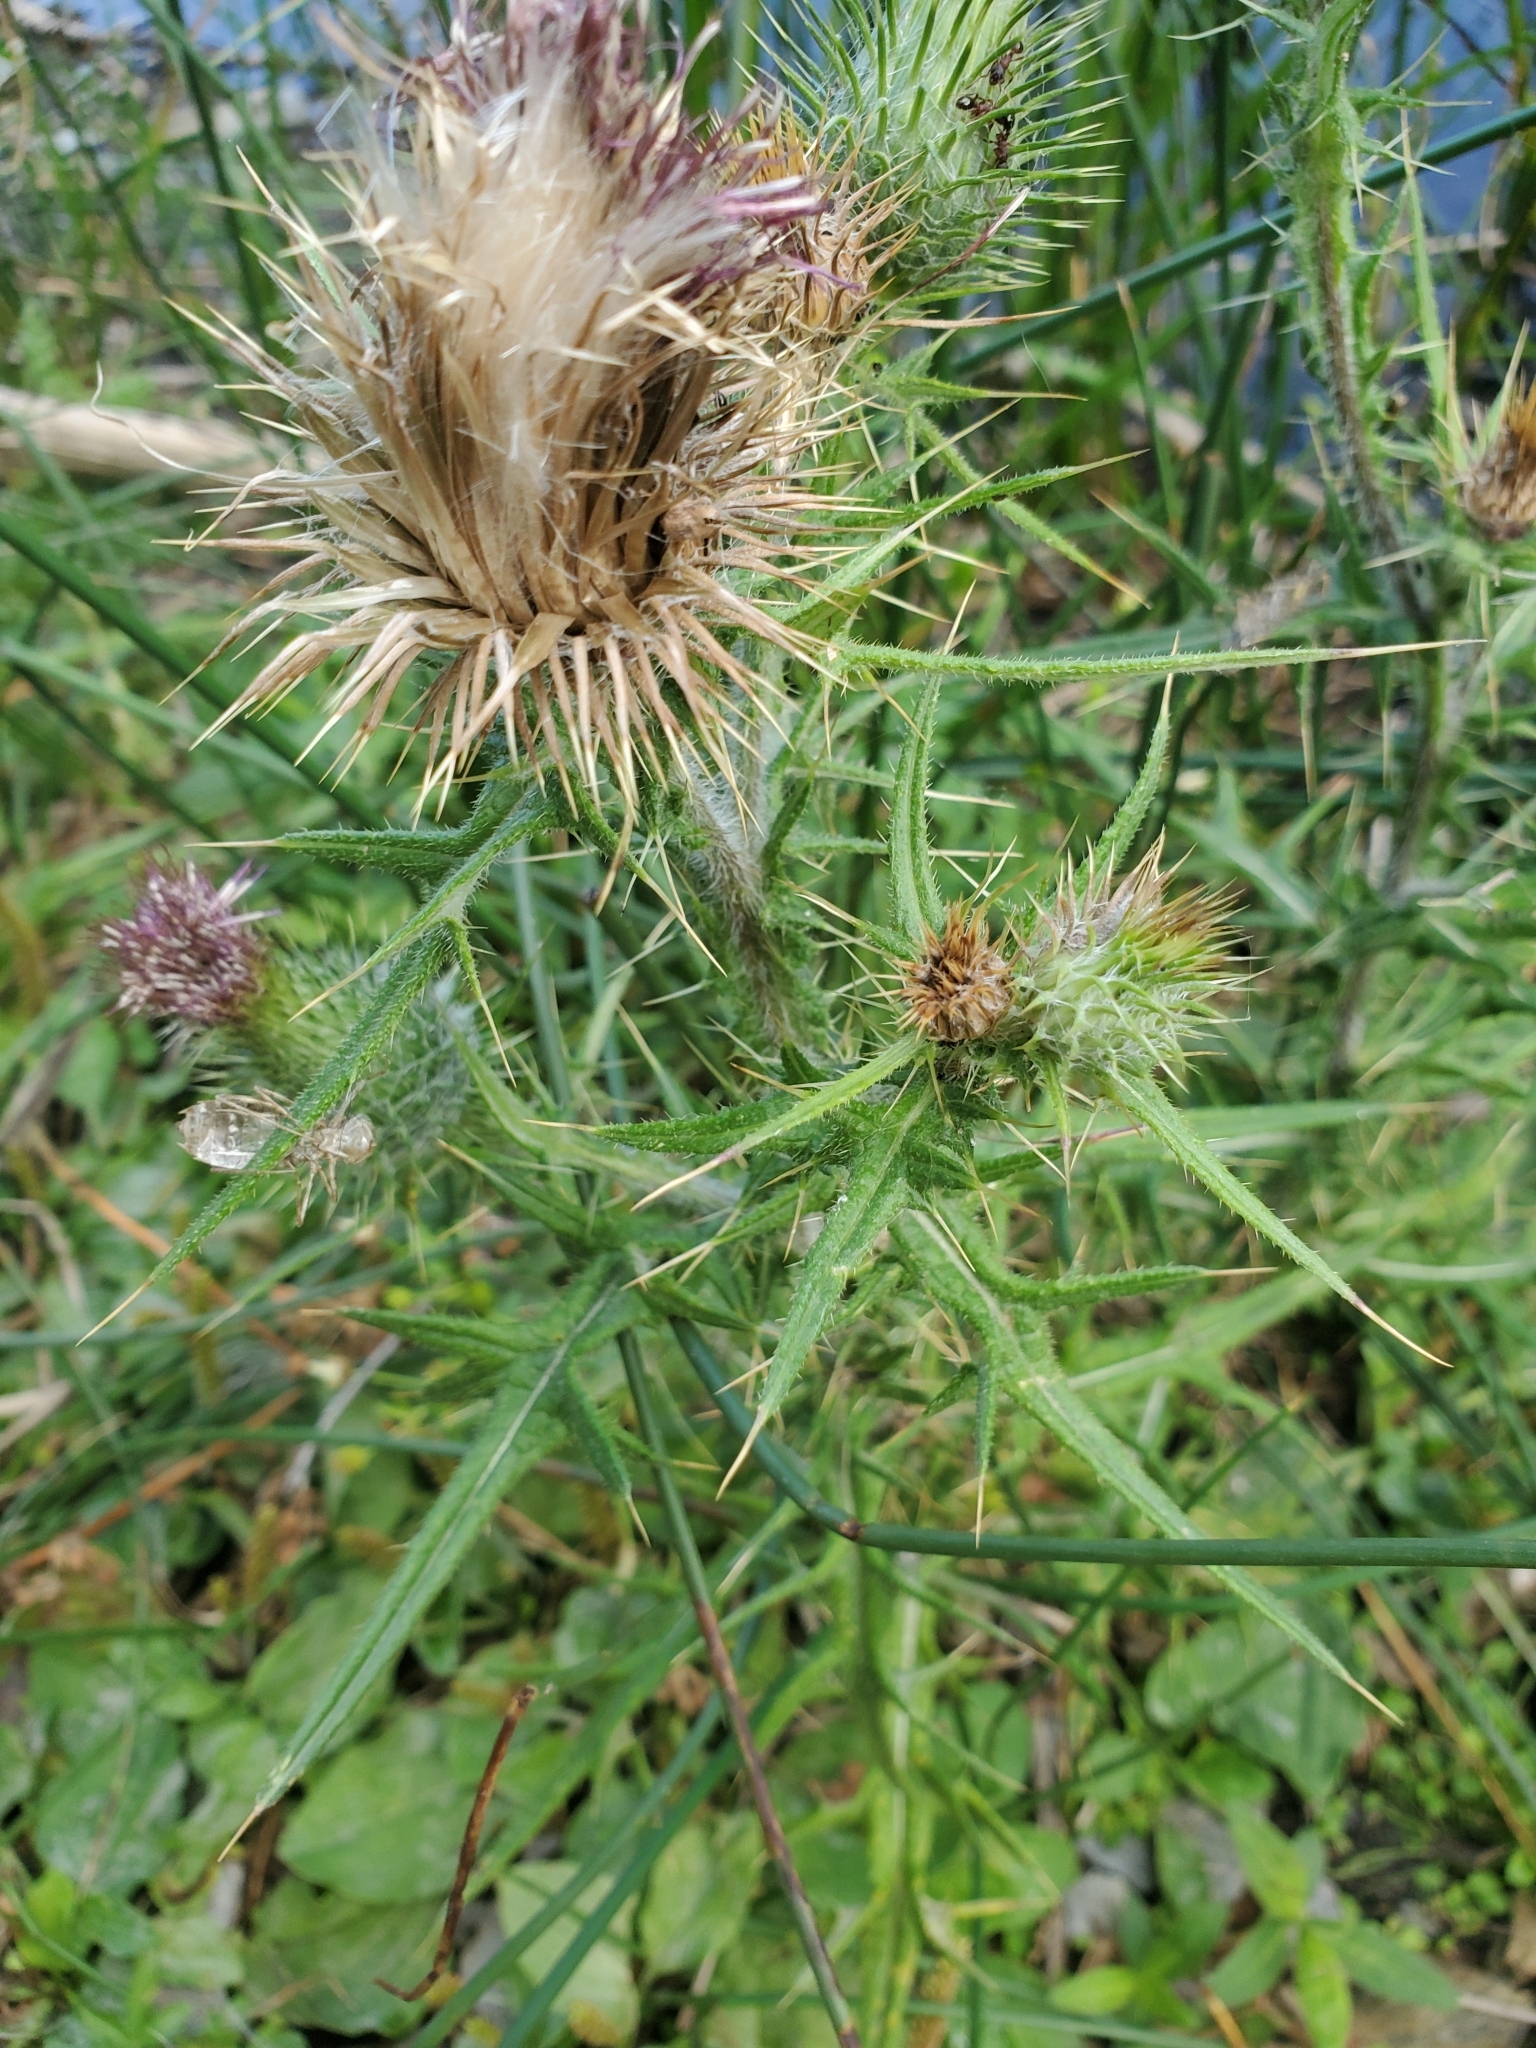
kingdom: Plantae
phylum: Tracheophyta
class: Magnoliopsida
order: Asterales
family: Asteraceae
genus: Cirsium
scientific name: Cirsium vulgare
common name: Bull thistle
